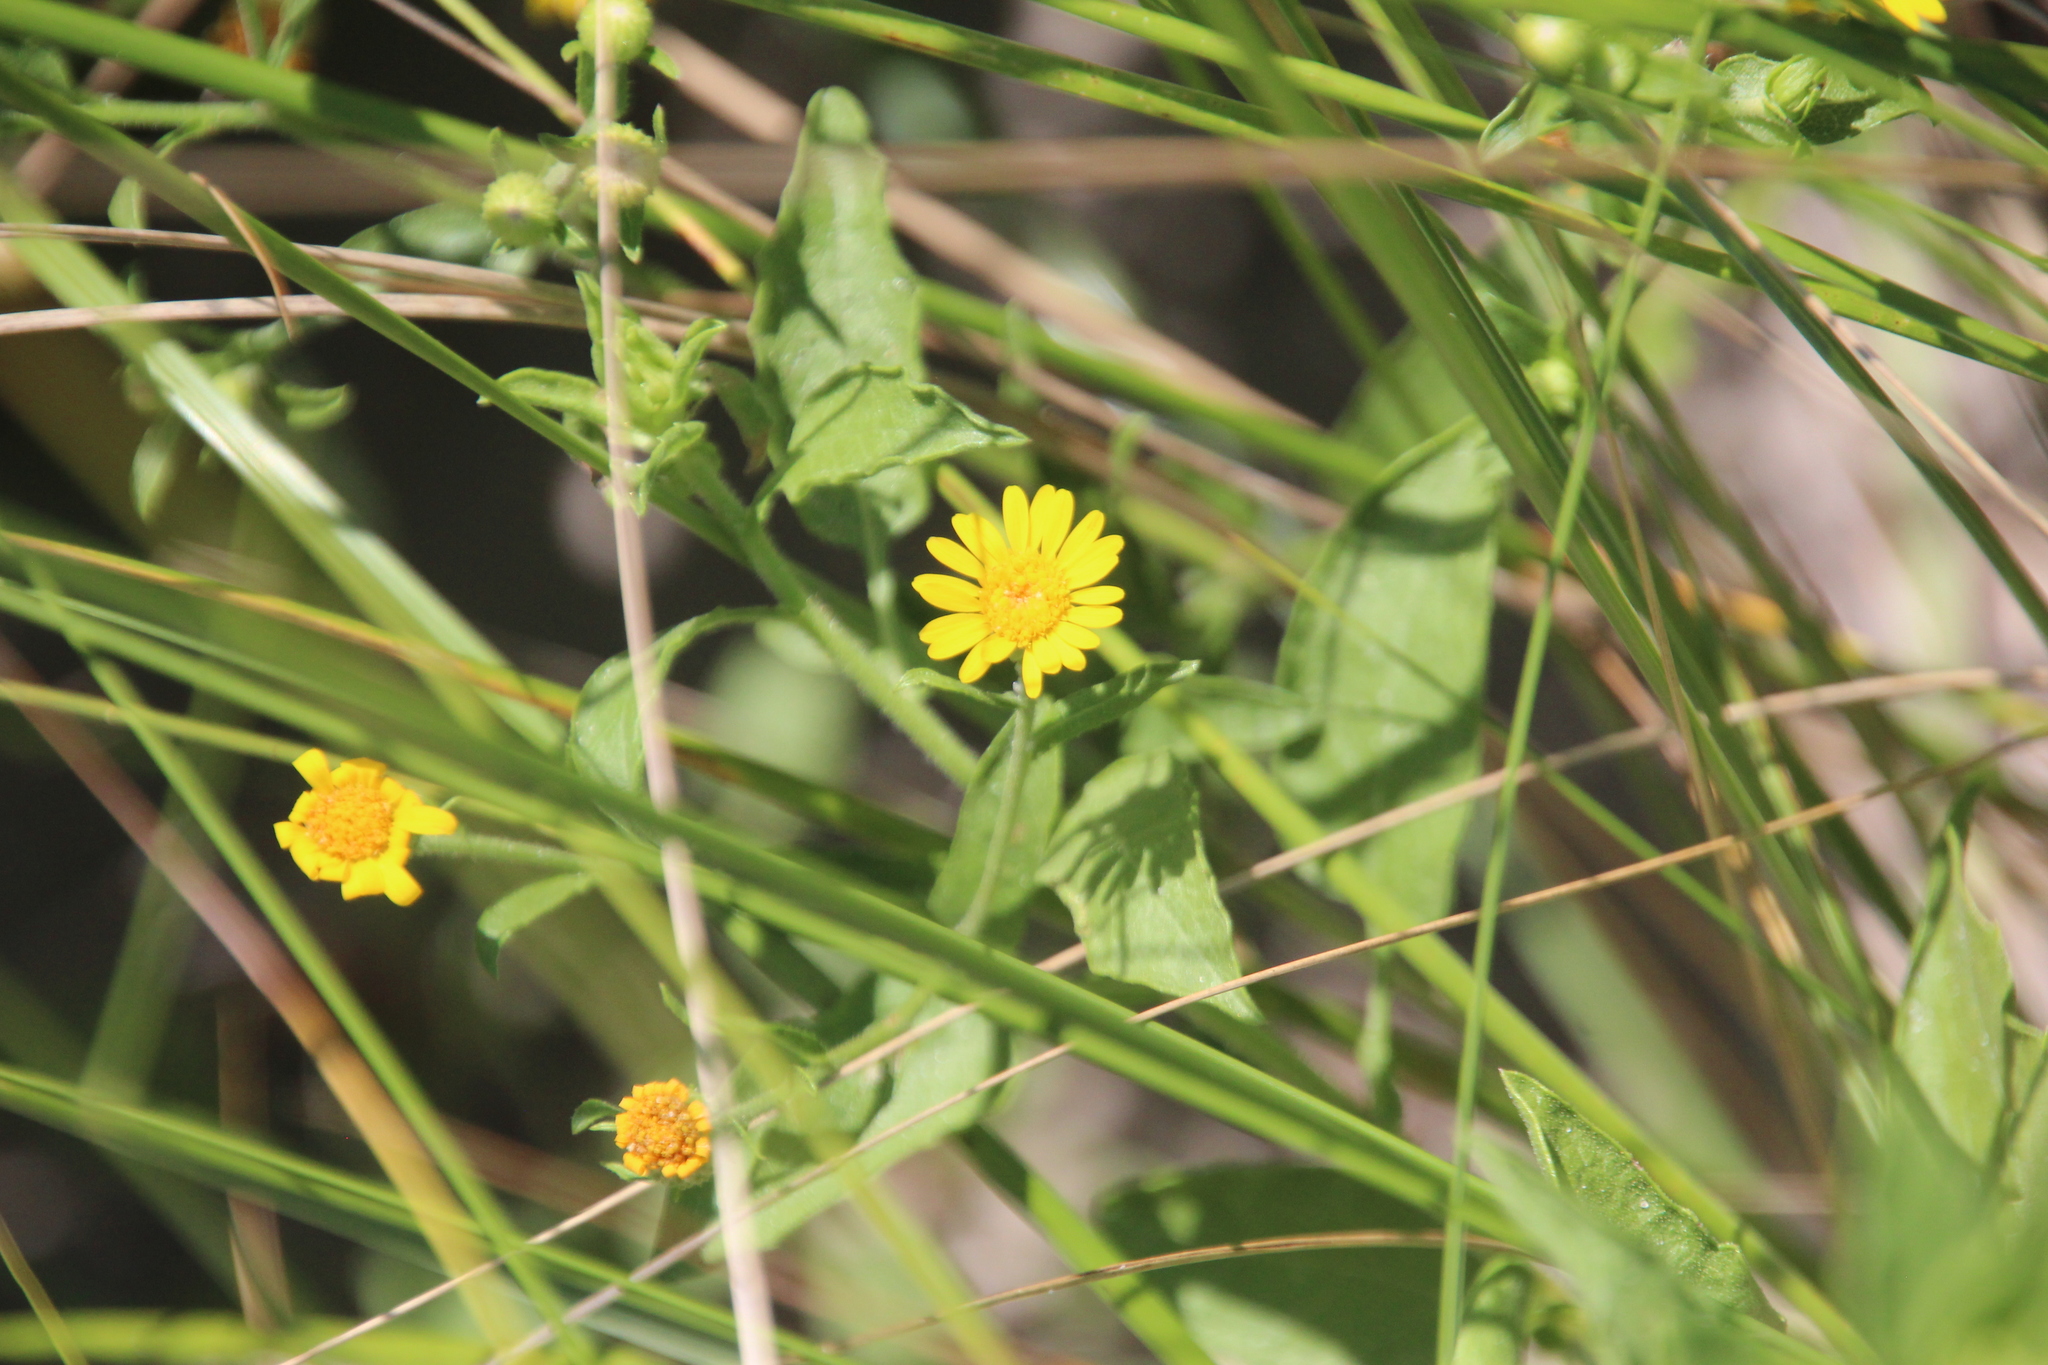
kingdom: Plantae
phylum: Tracheophyta
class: Magnoliopsida
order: Asterales
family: Asteraceae
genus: Heterotheca
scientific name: Heterotheca subaxillaris
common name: Camphorweed
